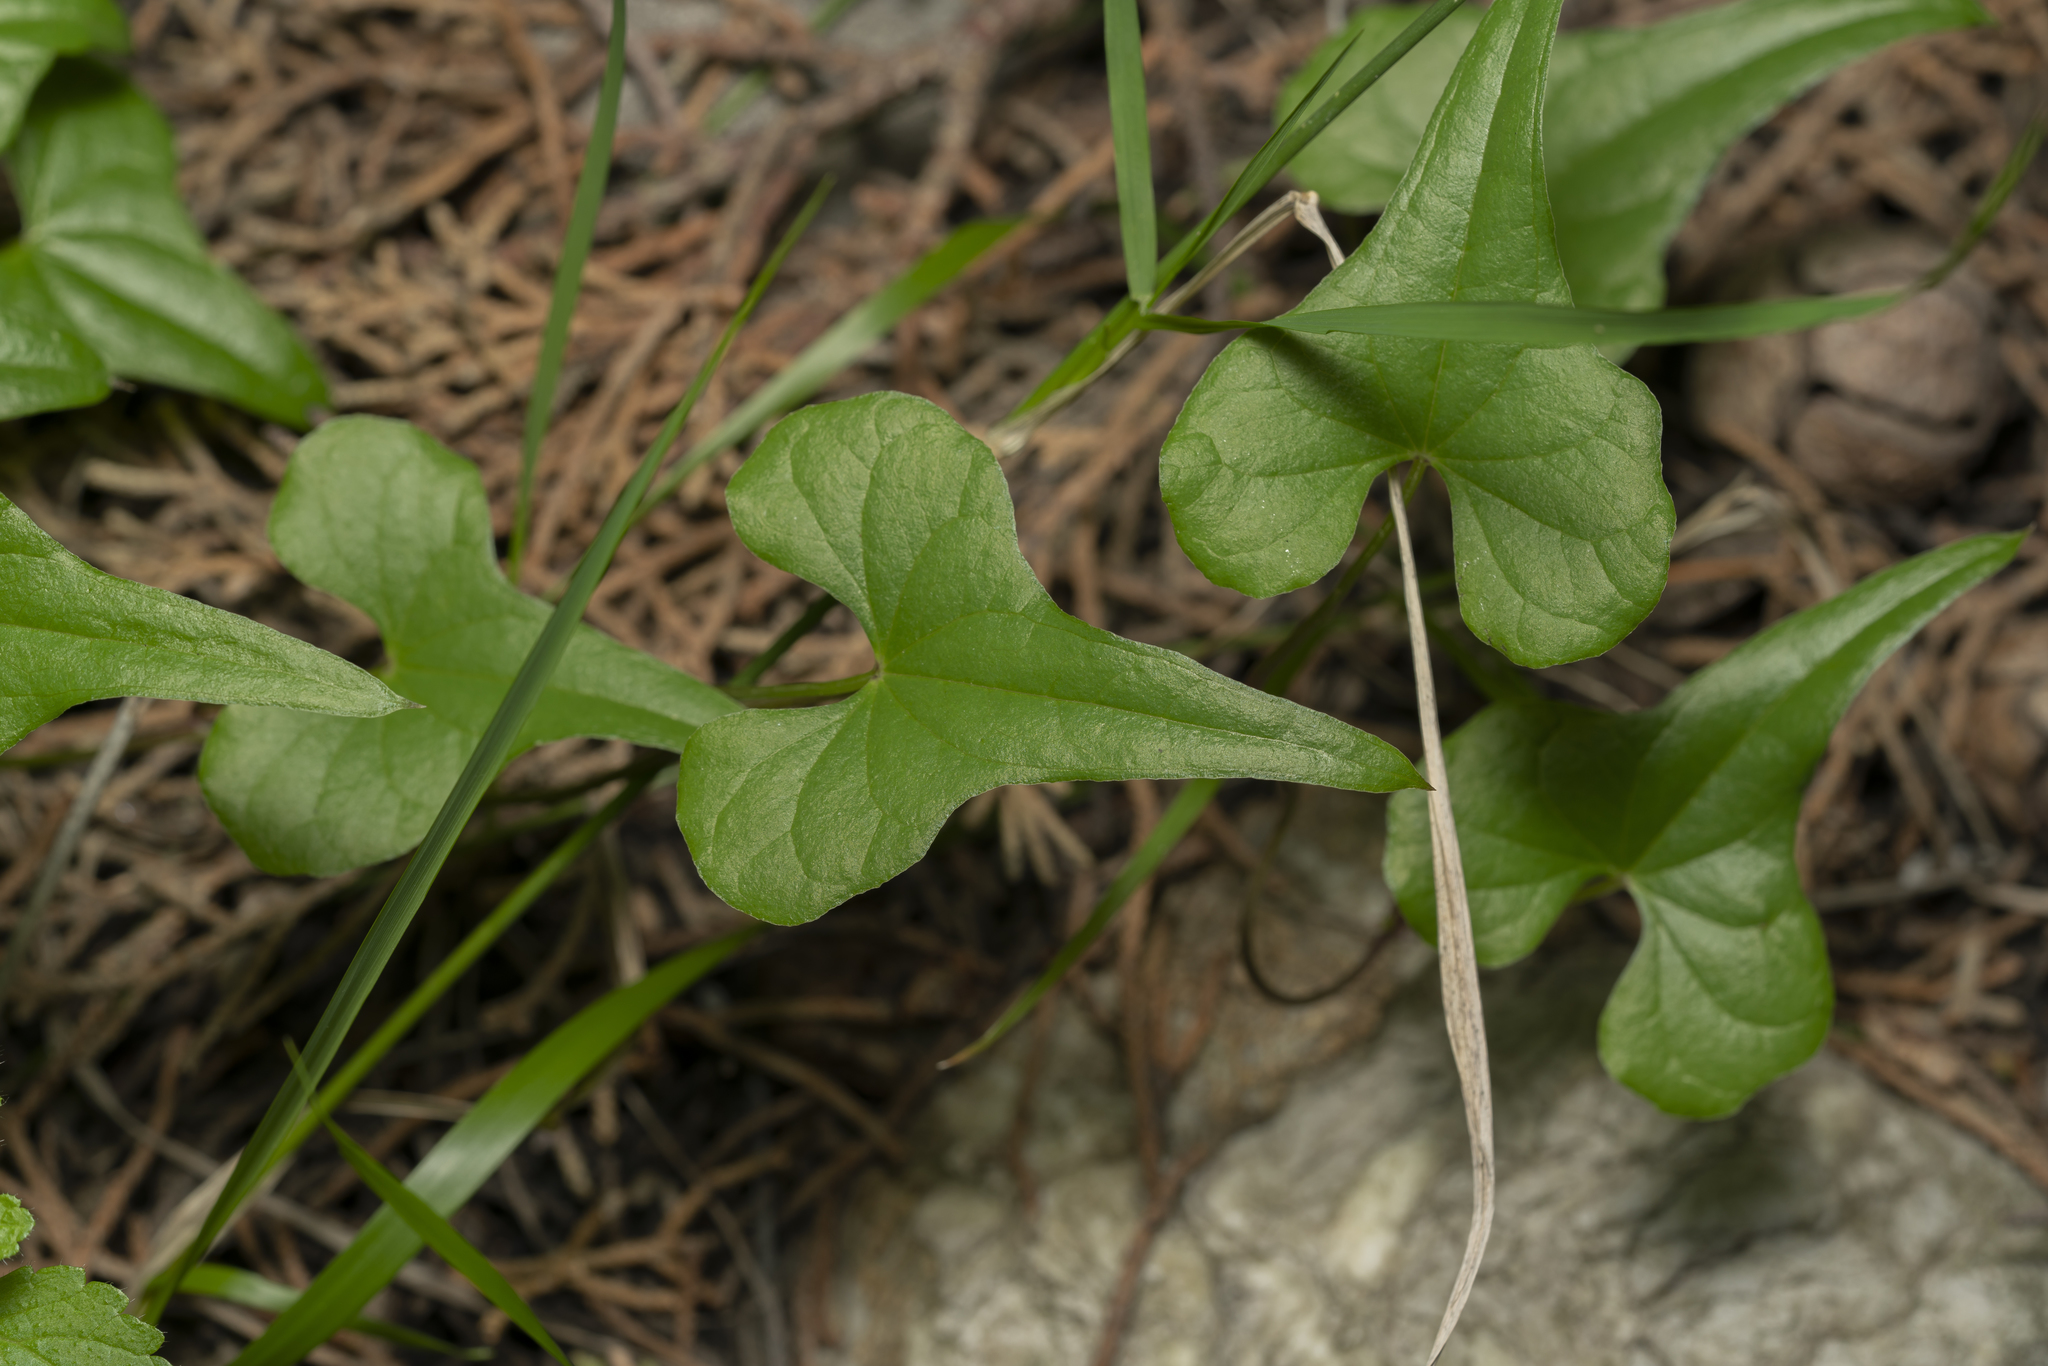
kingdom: Plantae
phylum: Tracheophyta
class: Liliopsida
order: Dioscoreales
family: Dioscoreaceae
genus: Dioscorea
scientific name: Dioscorea communis
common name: Black-bindweed
